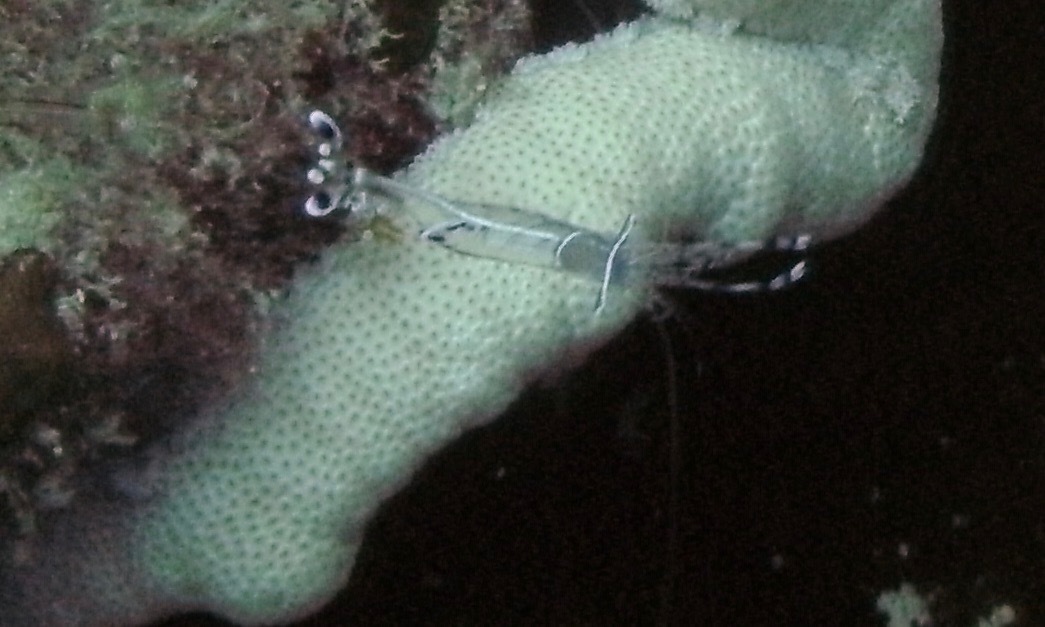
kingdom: Animalia
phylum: Arthropoda
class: Malacostraca
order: Decapoda
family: Palaemonidae
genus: Ancylomenes
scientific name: Ancylomenes longicarpus
